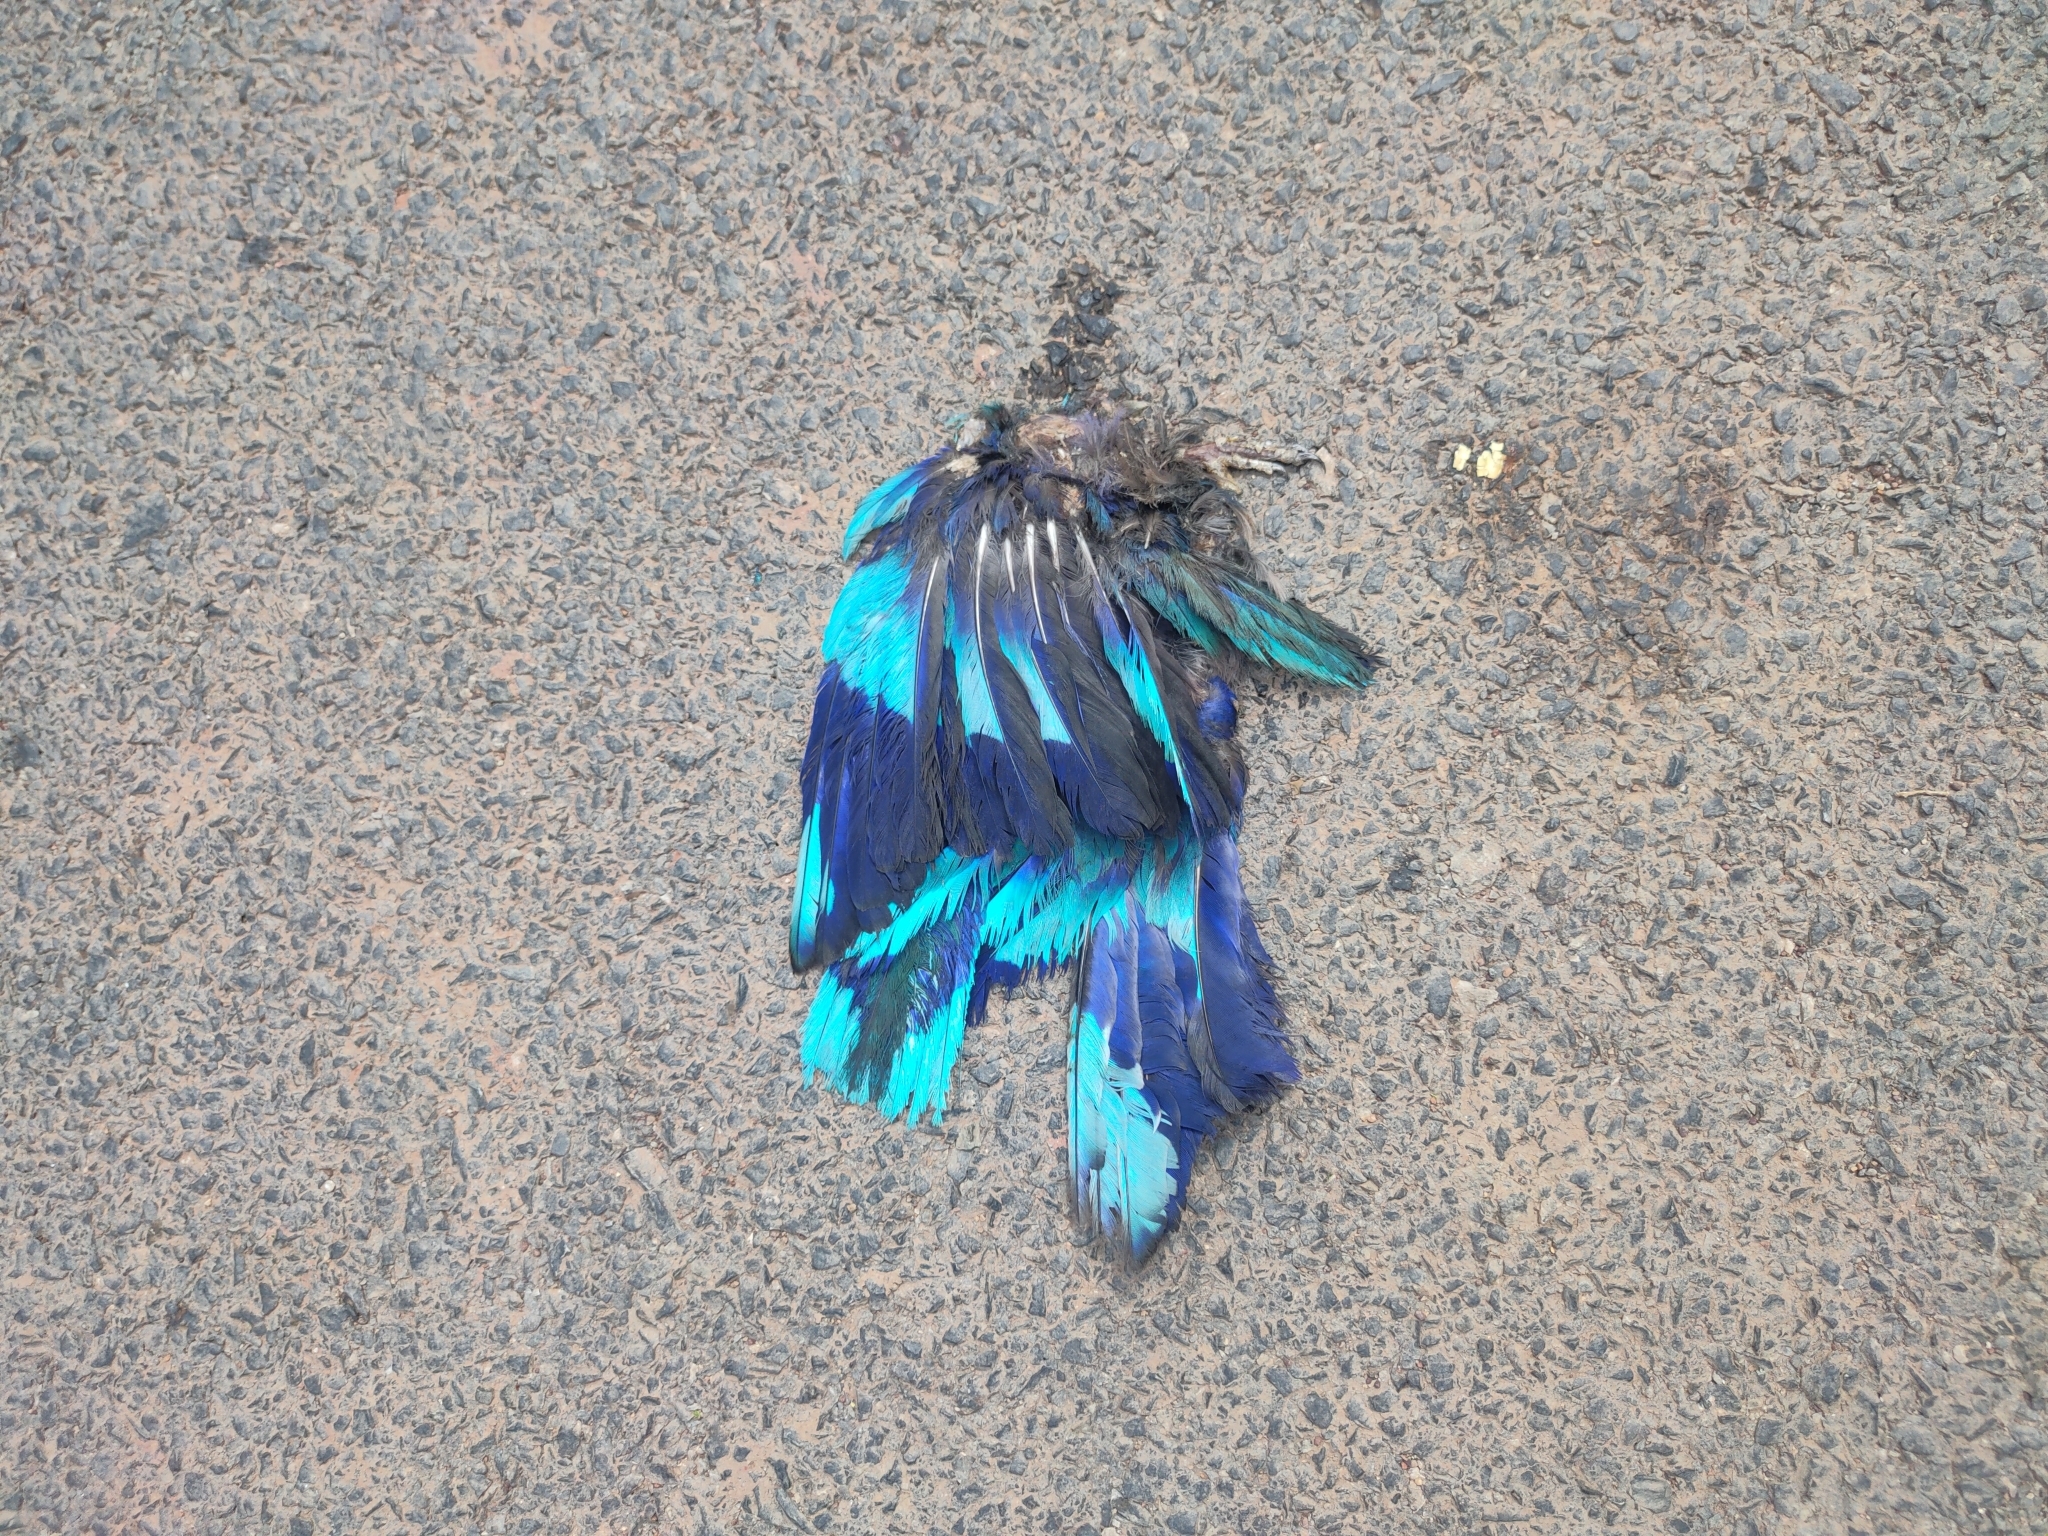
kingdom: Animalia
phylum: Chordata
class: Aves
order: Coraciiformes
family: Coraciidae
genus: Coracias
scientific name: Coracias affinis
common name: Indochinese roller
